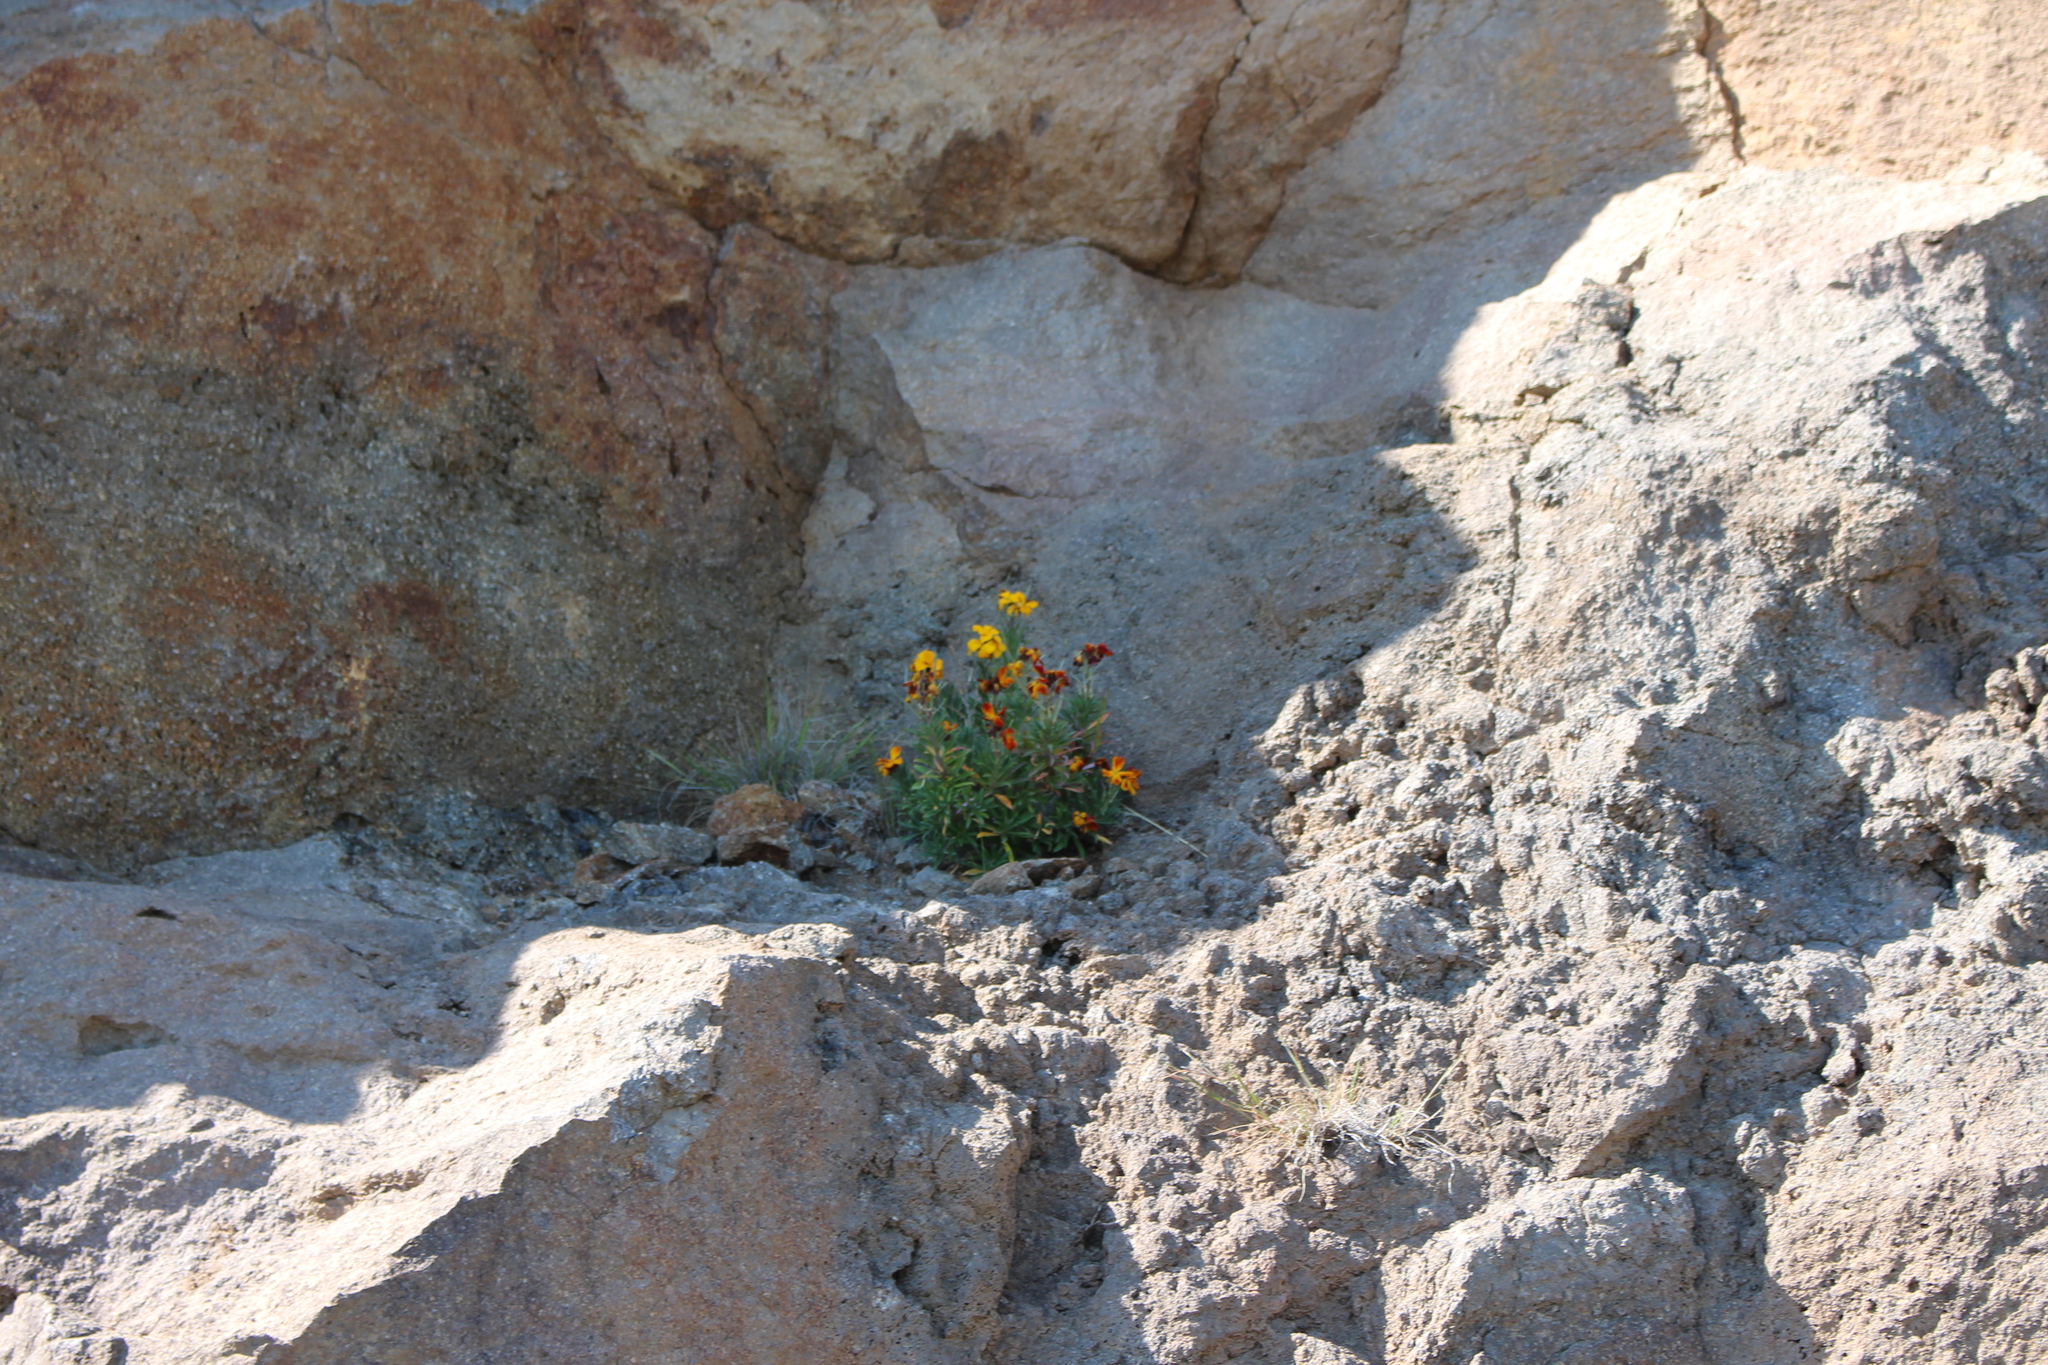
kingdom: Plantae
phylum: Tracheophyta
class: Magnoliopsida
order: Brassicales
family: Brassicaceae
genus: Erysimum
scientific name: Erysimum cheiri
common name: Wallflower
